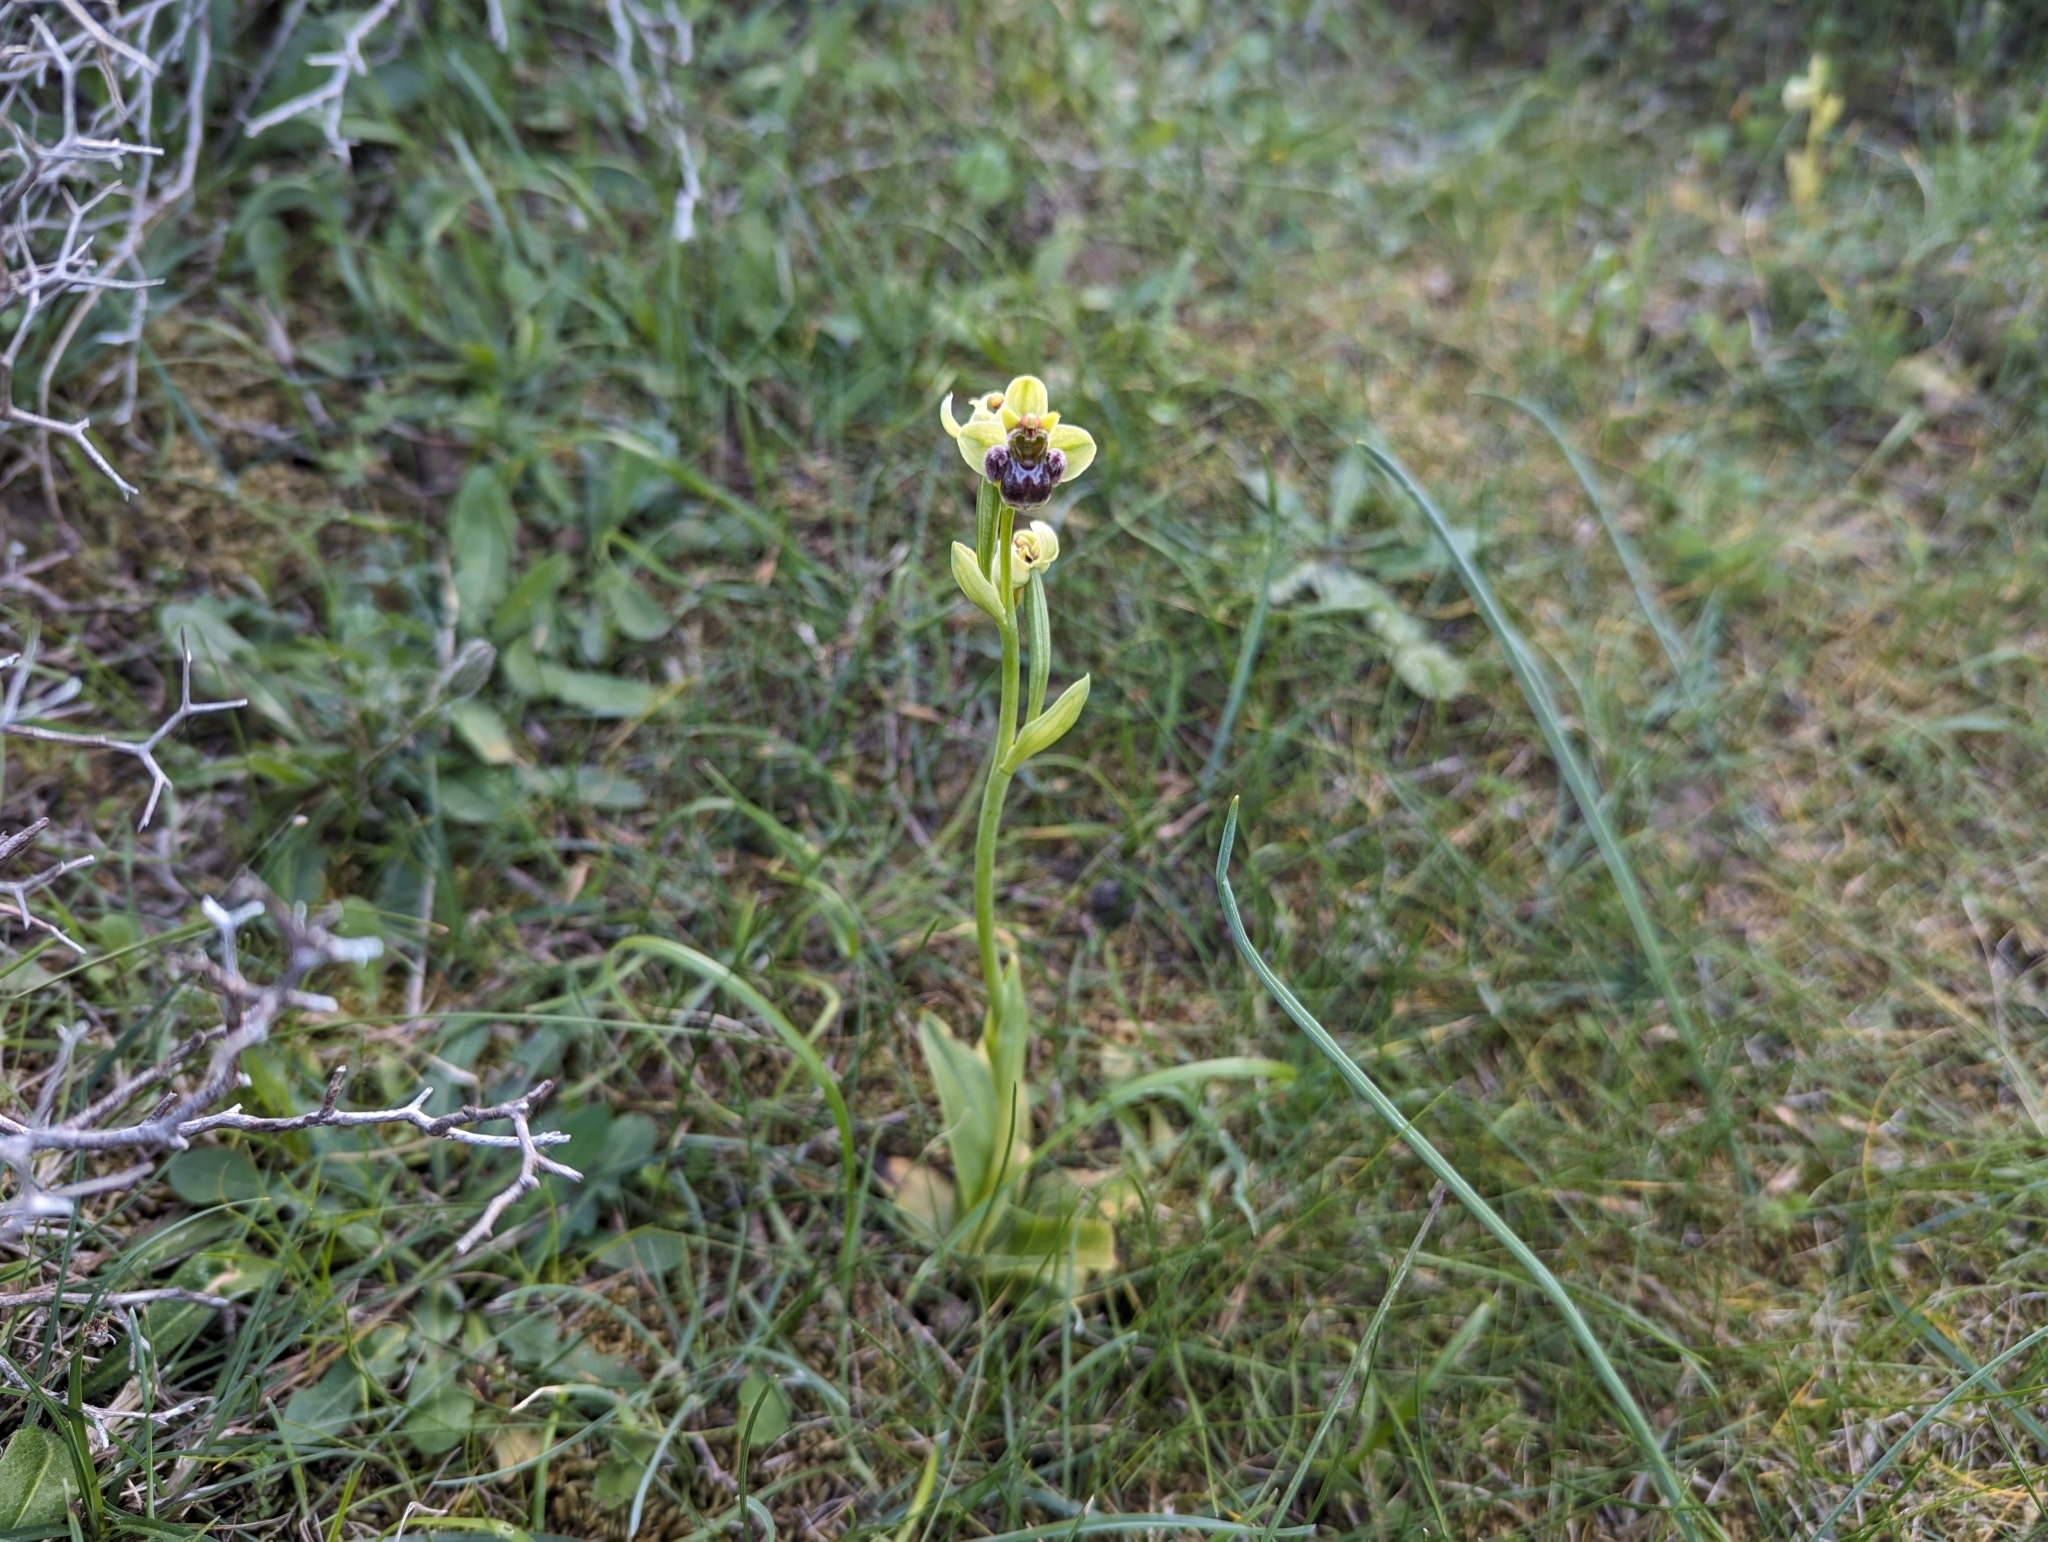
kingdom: Plantae
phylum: Tracheophyta
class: Liliopsida
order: Asparagales
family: Orchidaceae
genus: Ophrys
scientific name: Ophrys bombyliflora
